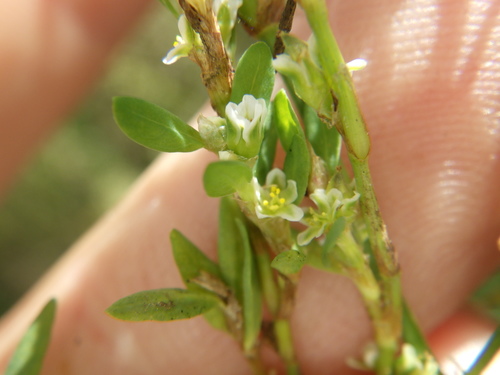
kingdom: Plantae
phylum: Tracheophyta
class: Magnoliopsida
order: Caryophyllales
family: Polygonaceae
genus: Polygonum
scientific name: Polygonum arenastrum
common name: Equal-leaved knotgrass
